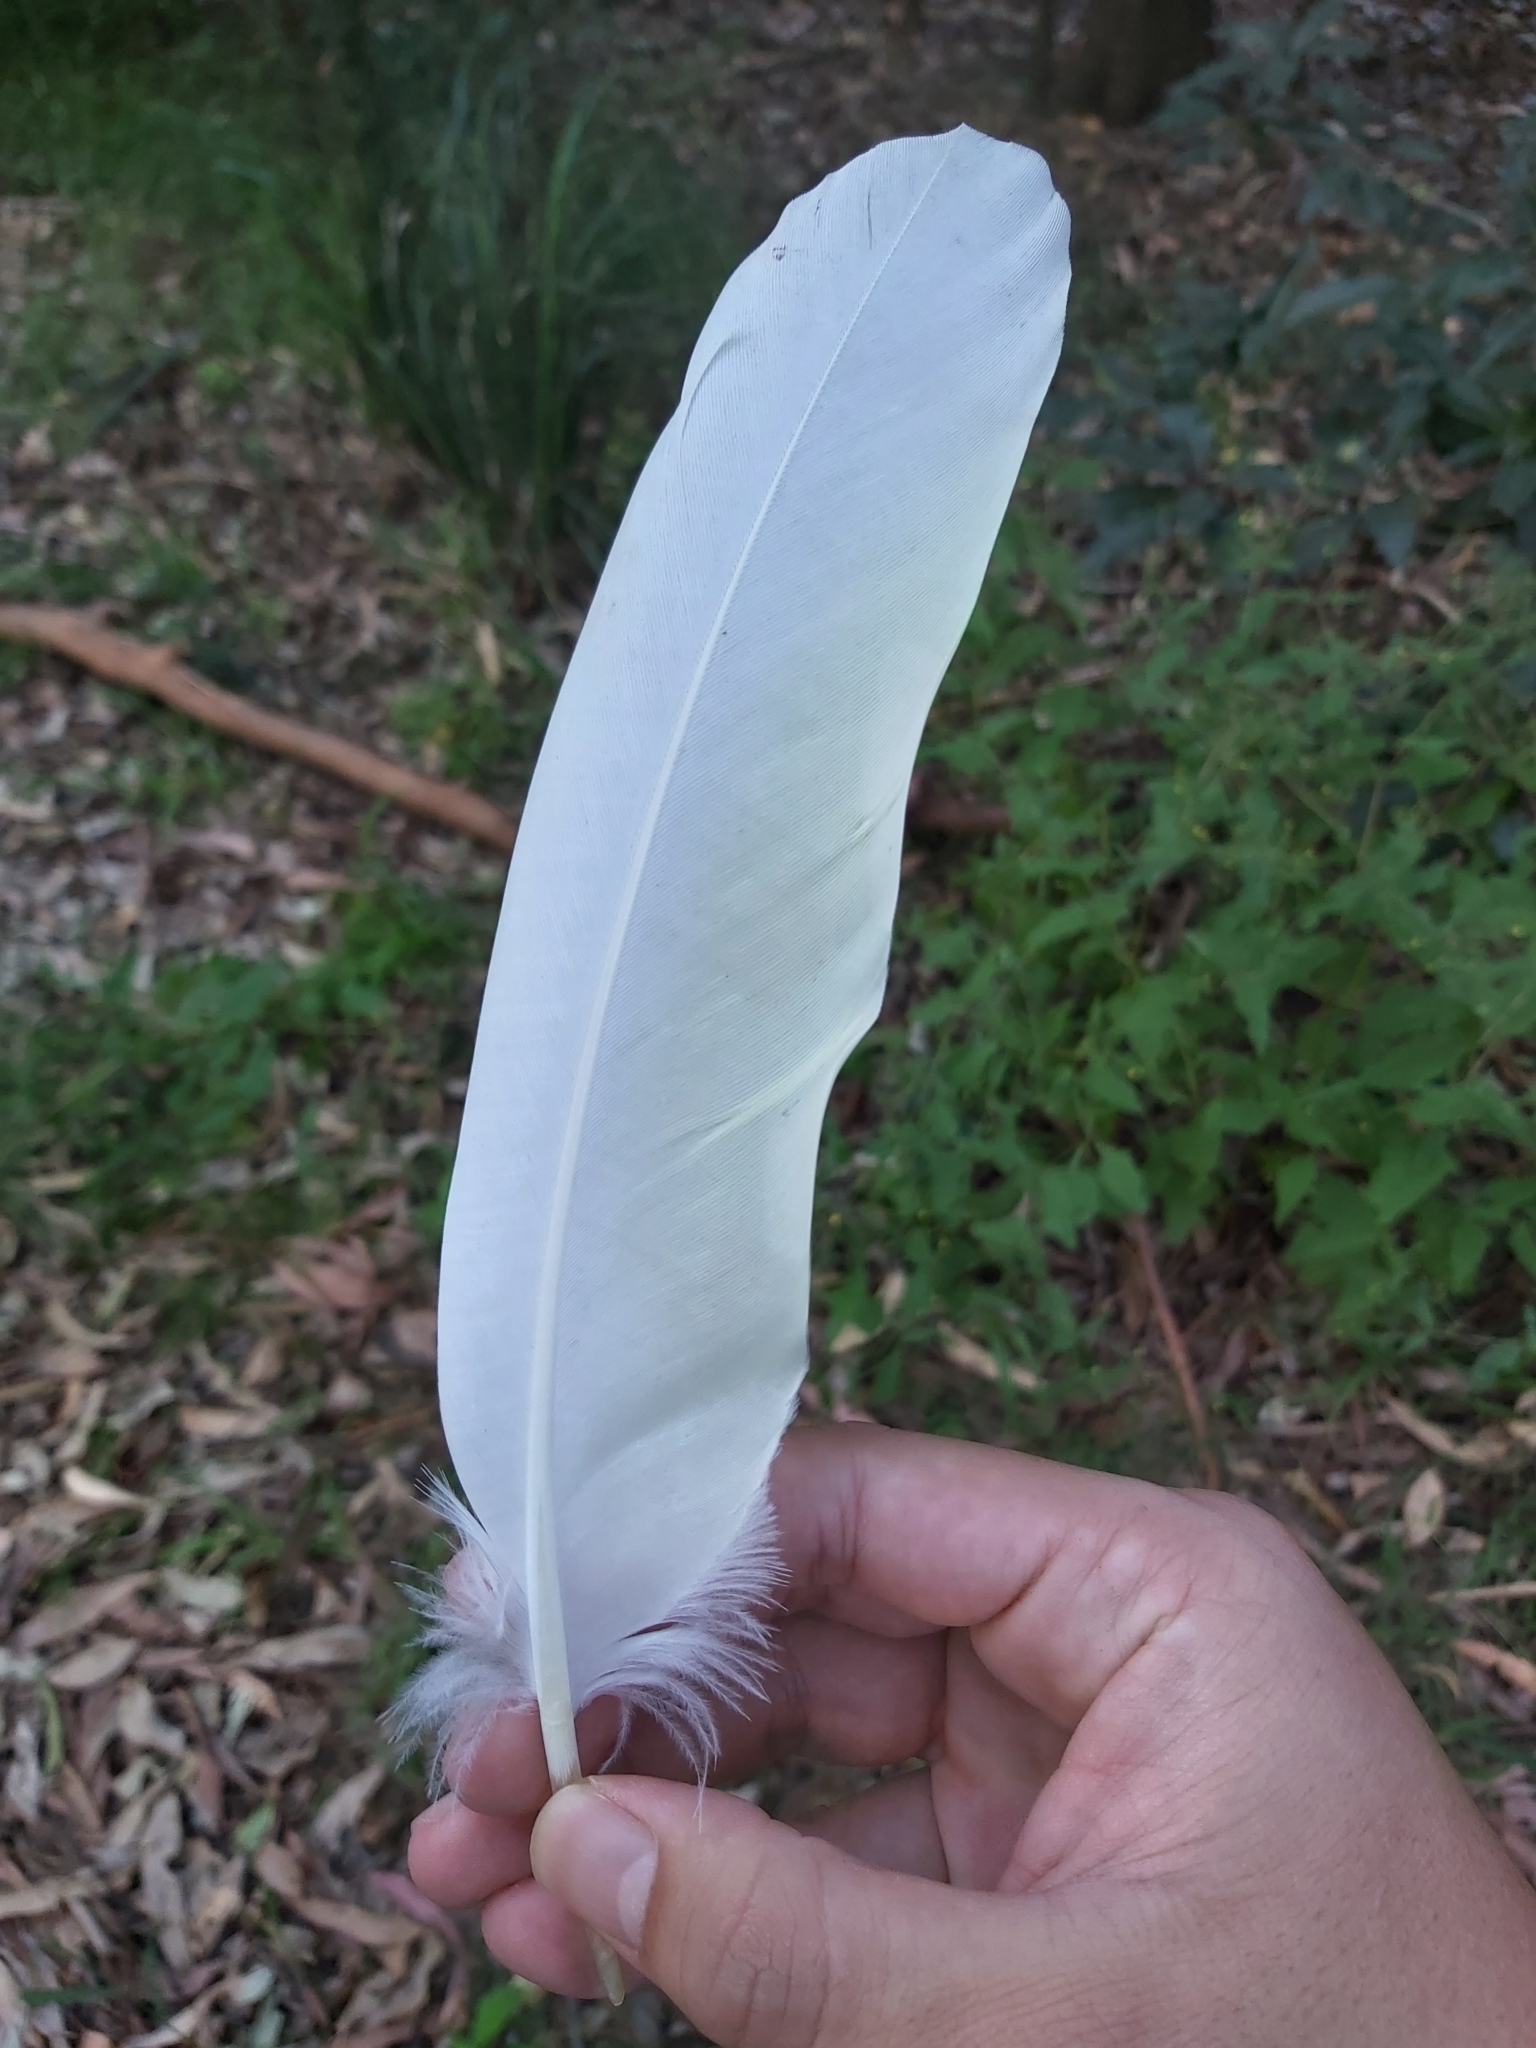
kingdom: Animalia
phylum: Chordata
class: Aves
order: Psittaciformes
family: Psittacidae
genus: Cacatua
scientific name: Cacatua galerita
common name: Sulphur-crested cockatoo
